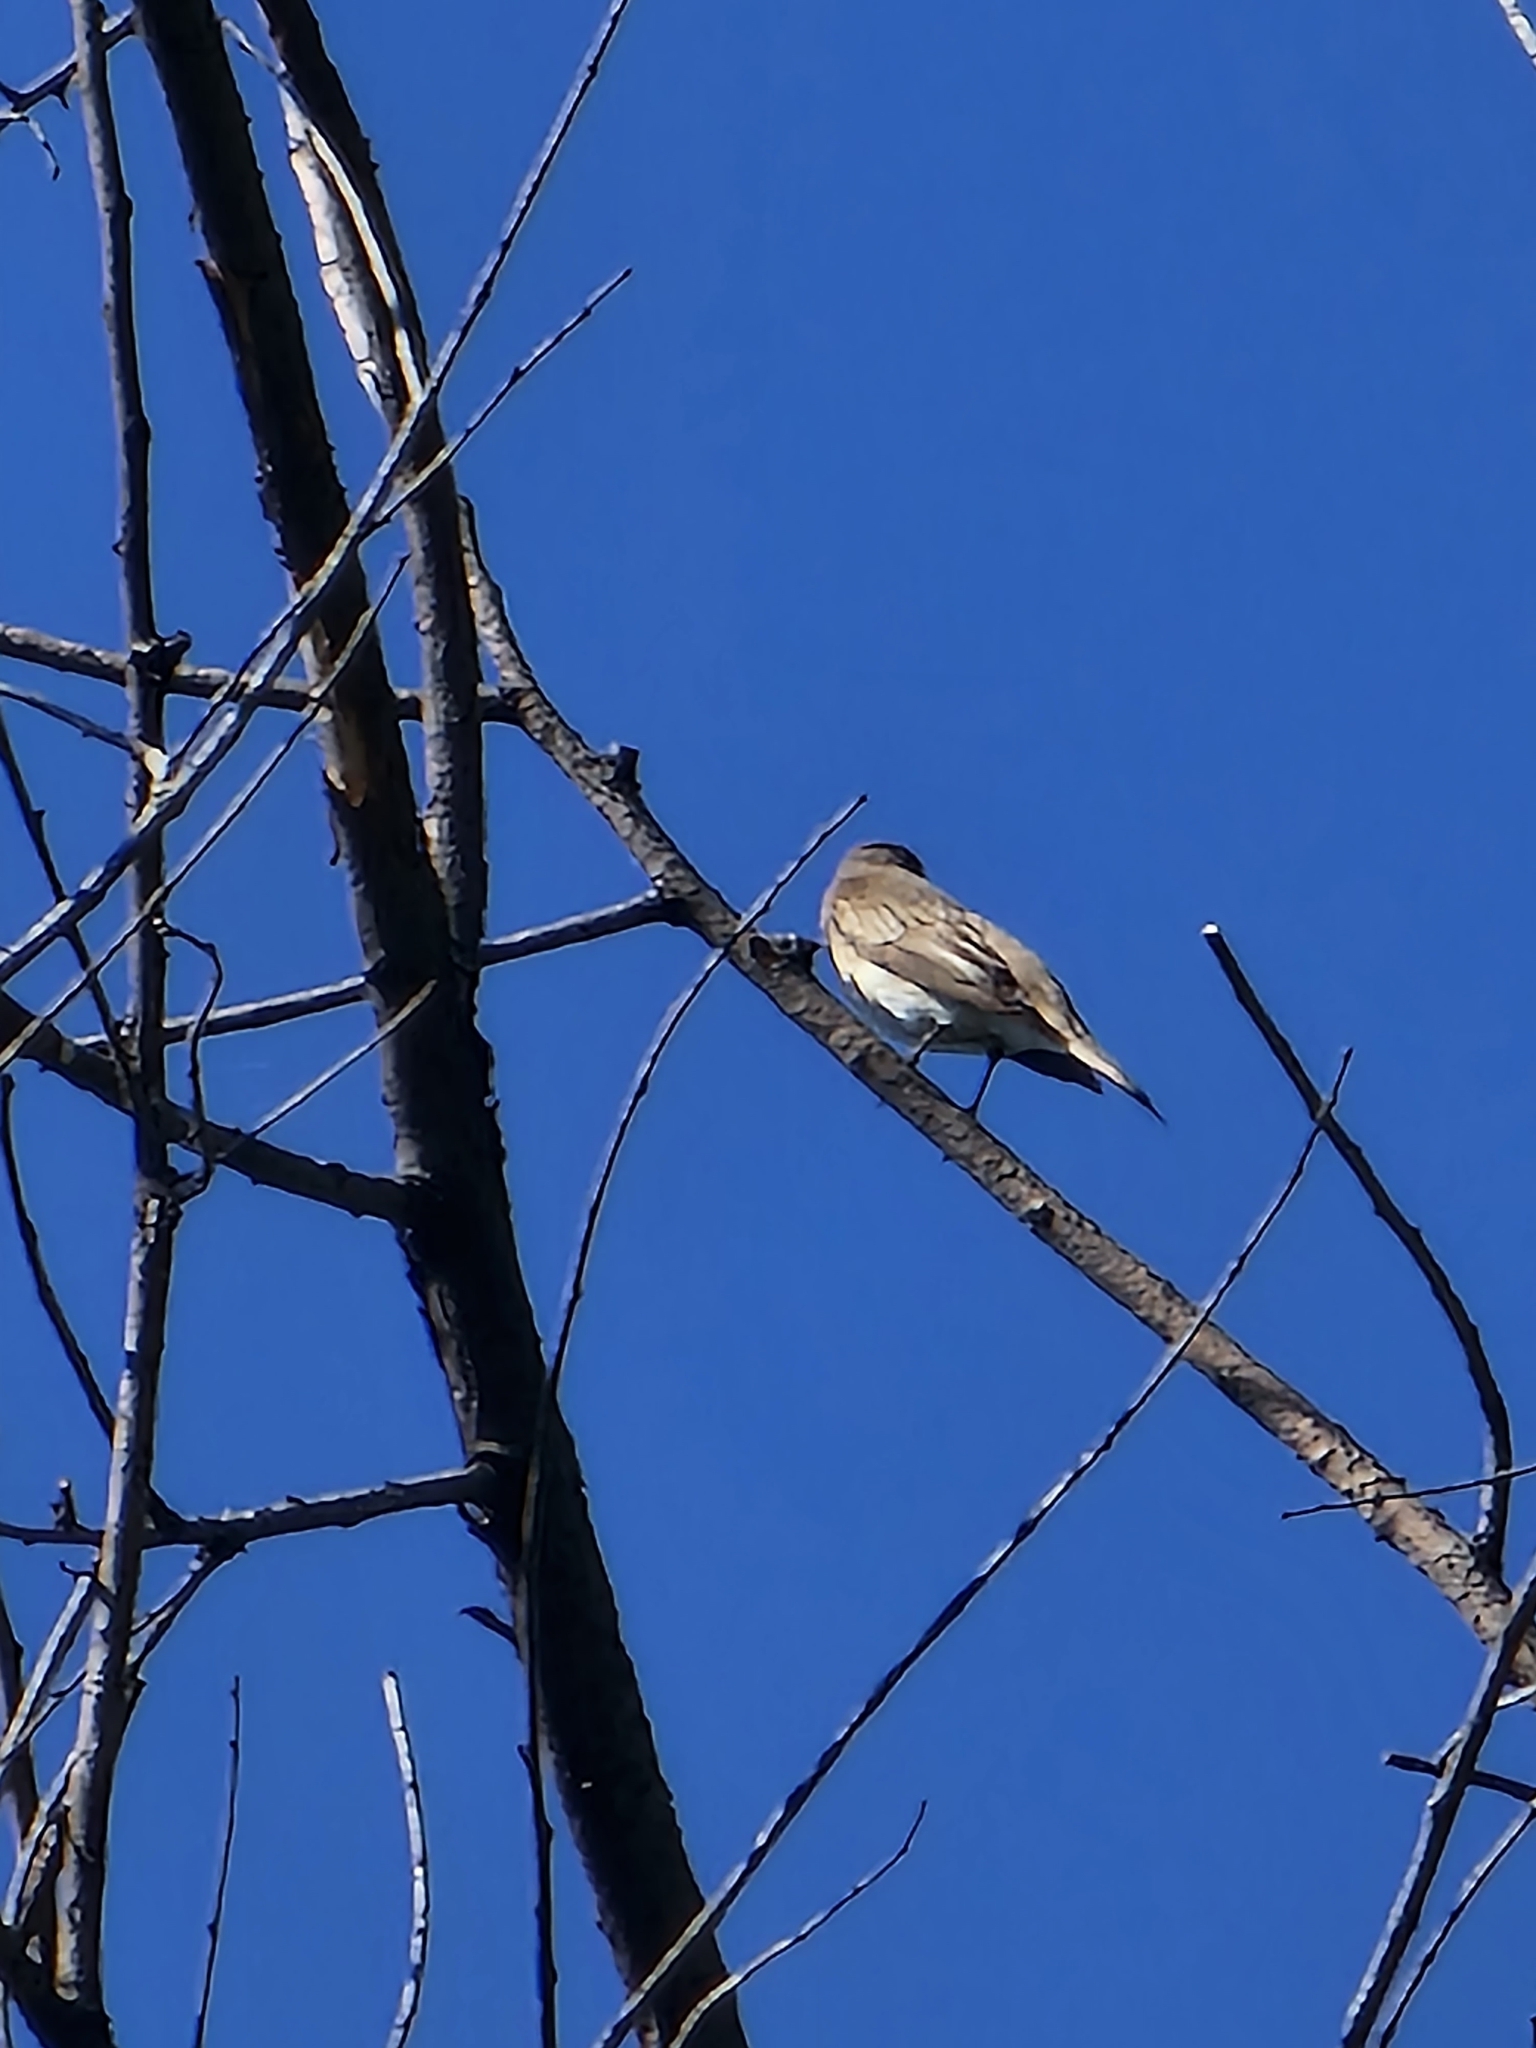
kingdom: Animalia
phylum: Chordata
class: Aves
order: Passeriformes
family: Muscicapidae
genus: Muscicapa
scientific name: Muscicapa striata
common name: Spotted flycatcher
